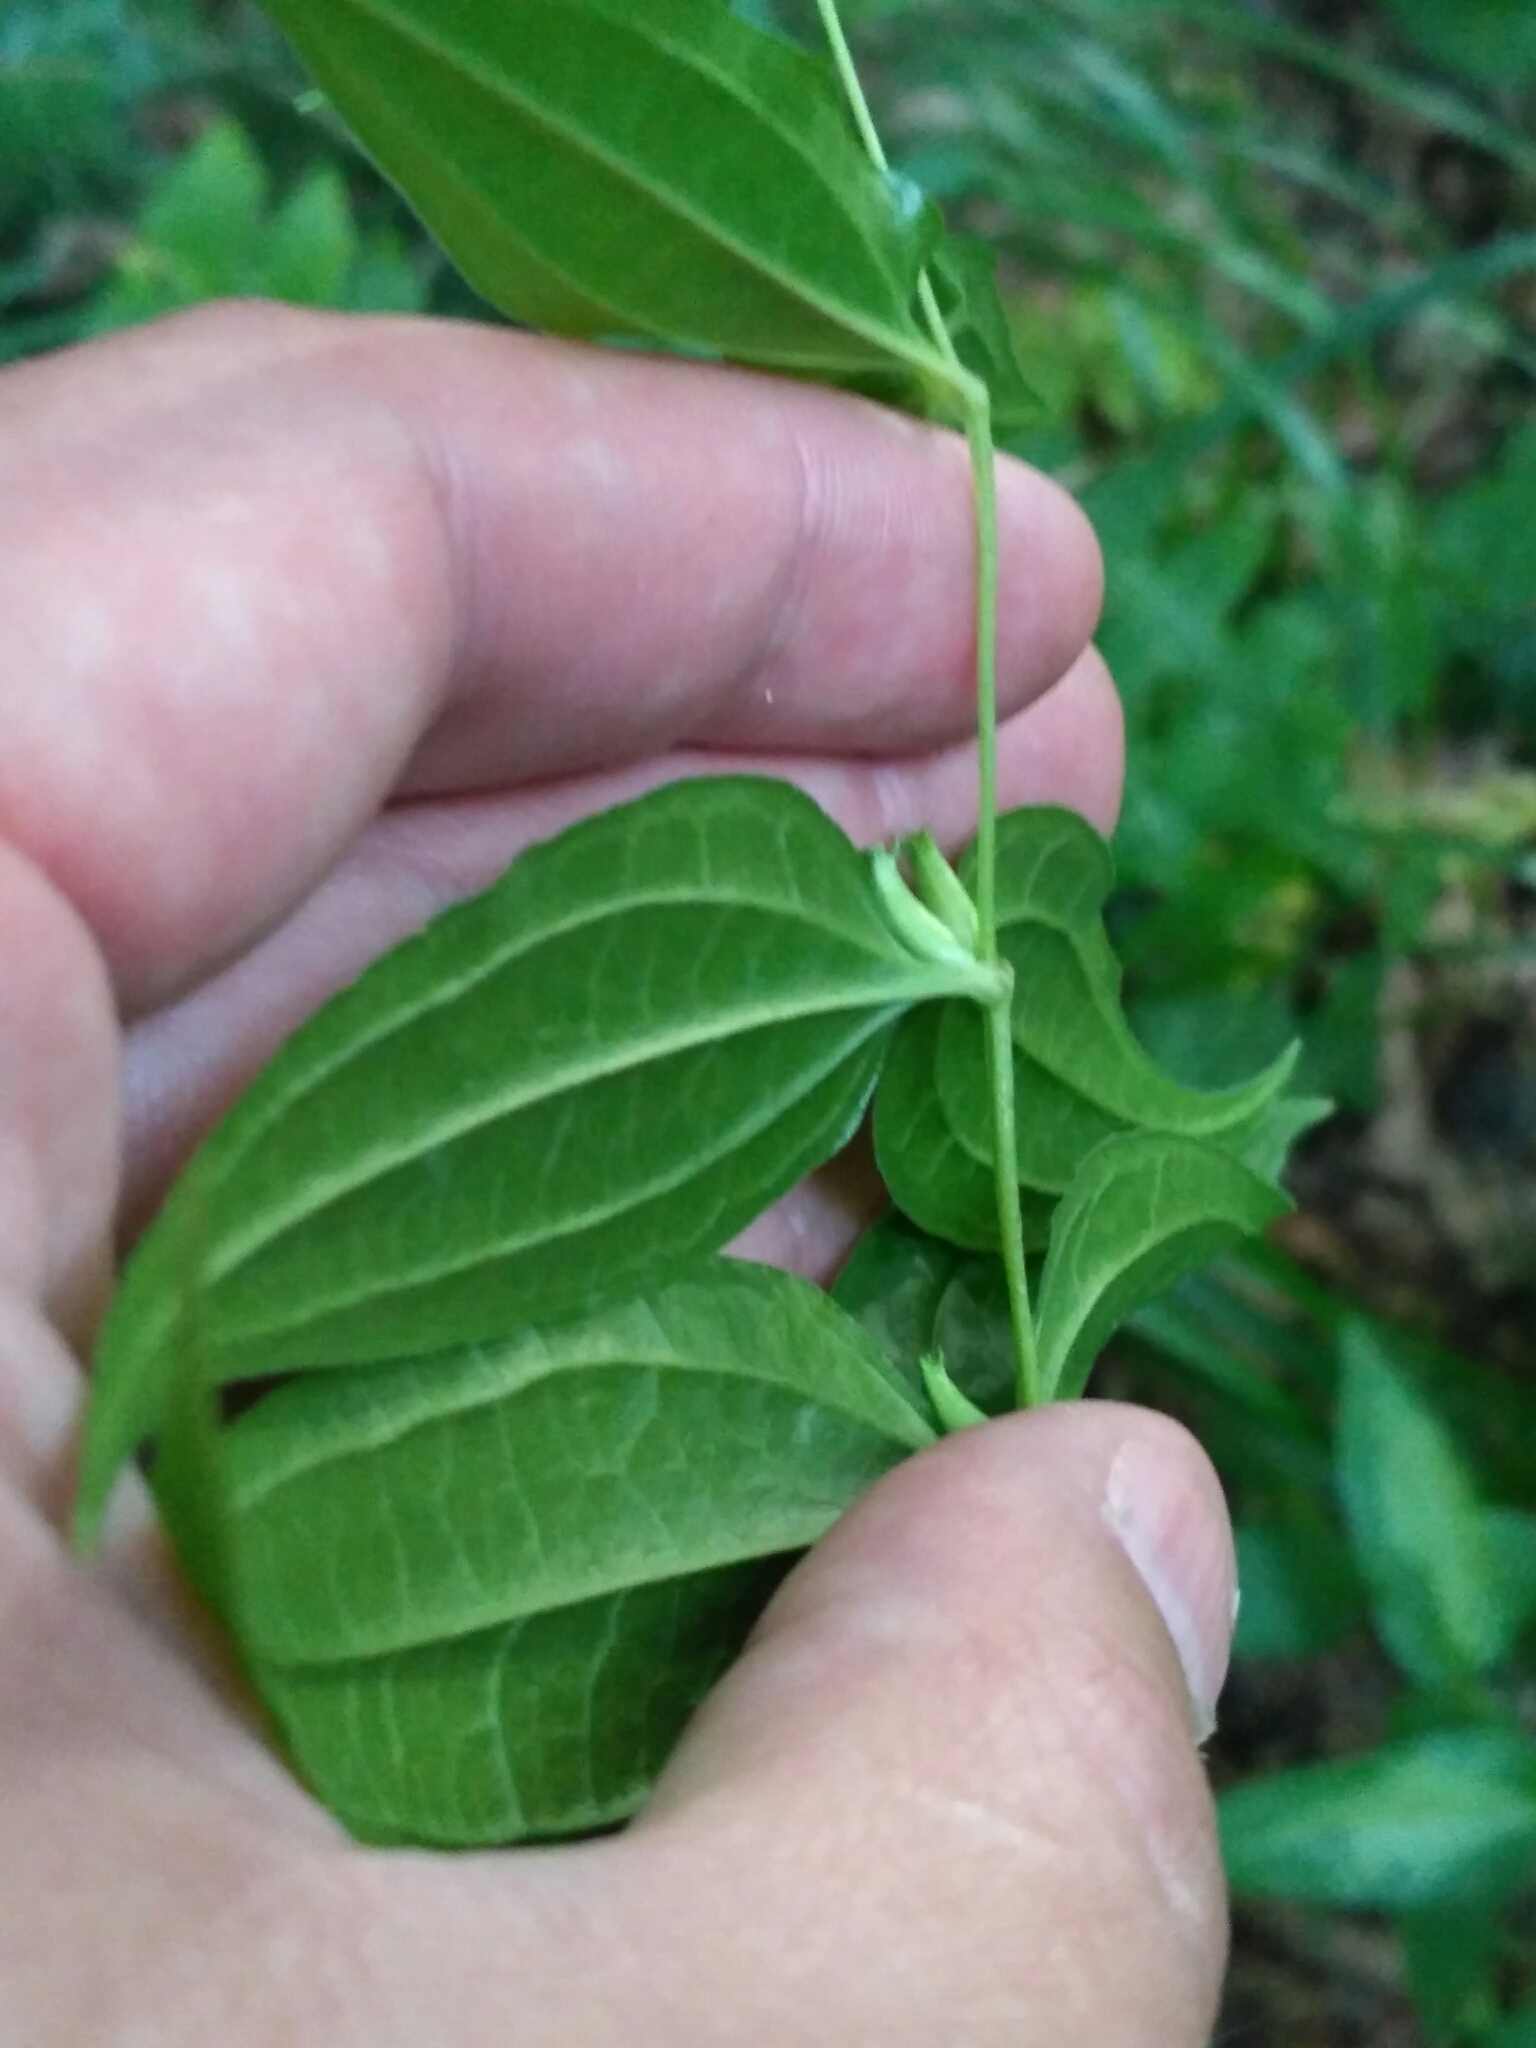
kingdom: Plantae
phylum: Tracheophyta
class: Magnoliopsida
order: Gentianales
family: Gentianaceae
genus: Gentiana
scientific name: Gentiana asclepiadea
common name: Willow gentian
